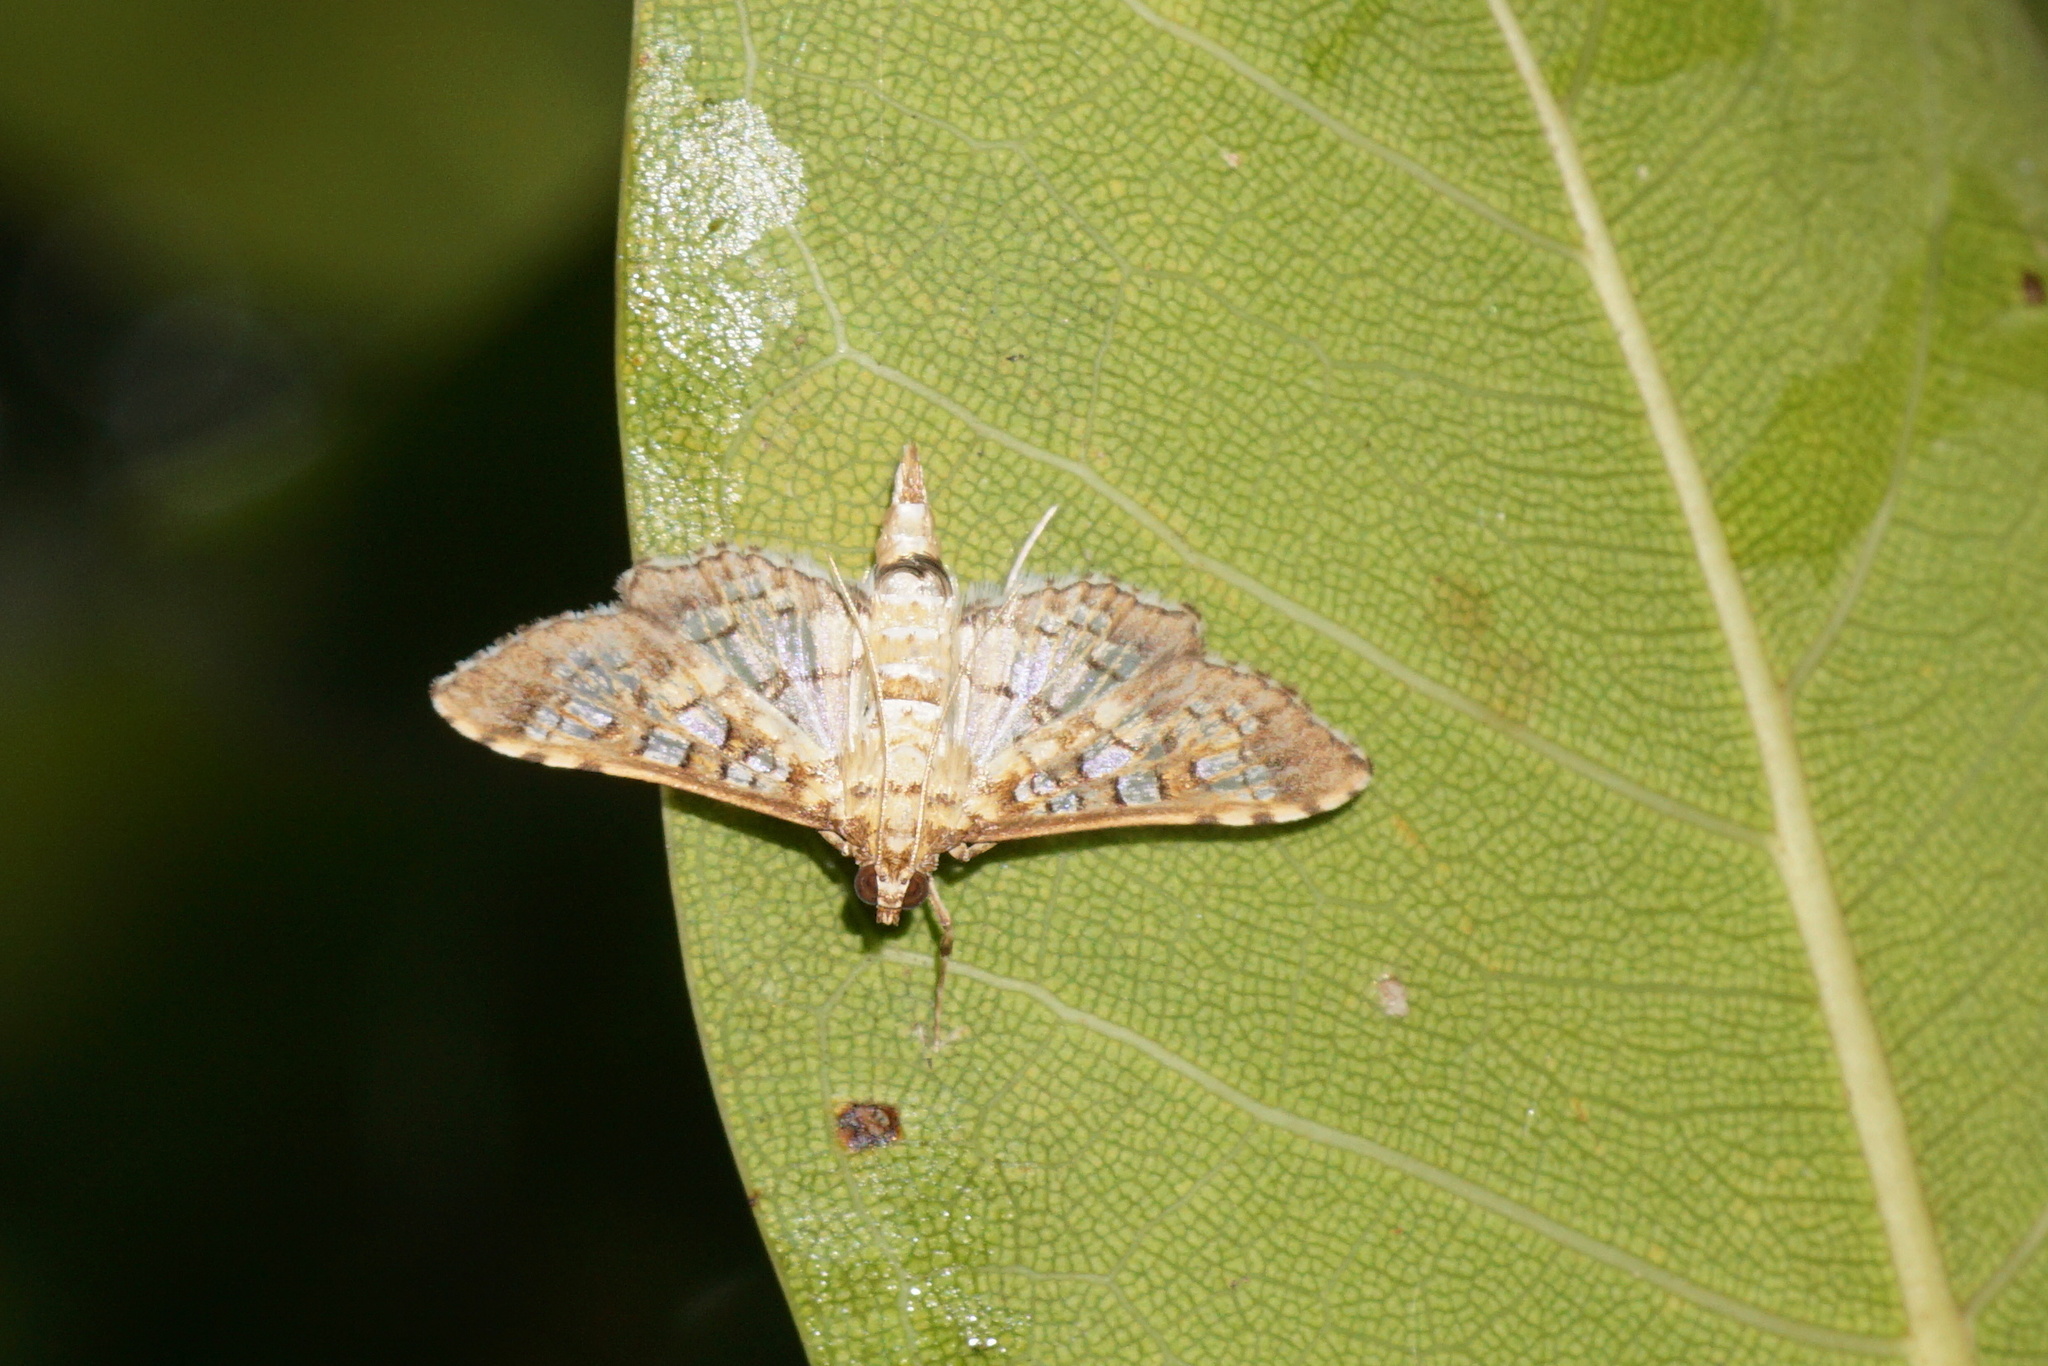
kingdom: Animalia
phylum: Arthropoda
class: Insecta
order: Lepidoptera
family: Crambidae
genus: Samea
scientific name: Samea ecclesialis
